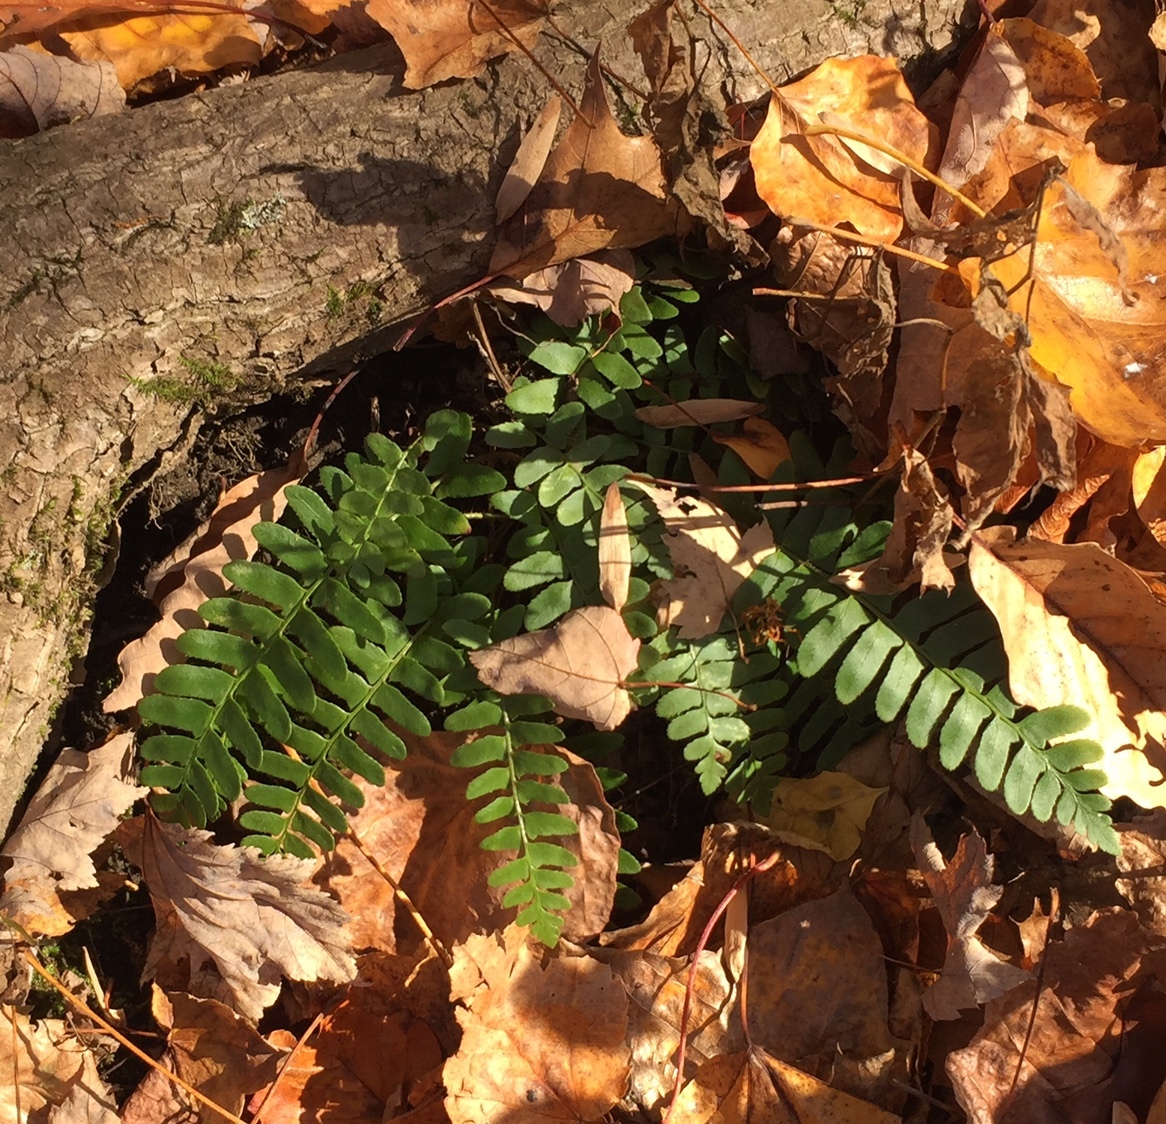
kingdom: Plantae
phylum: Tracheophyta
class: Polypodiopsida
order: Polypodiales
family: Dryopteridaceae
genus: Polystichum
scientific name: Polystichum acrostichoides
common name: Christmas fern
